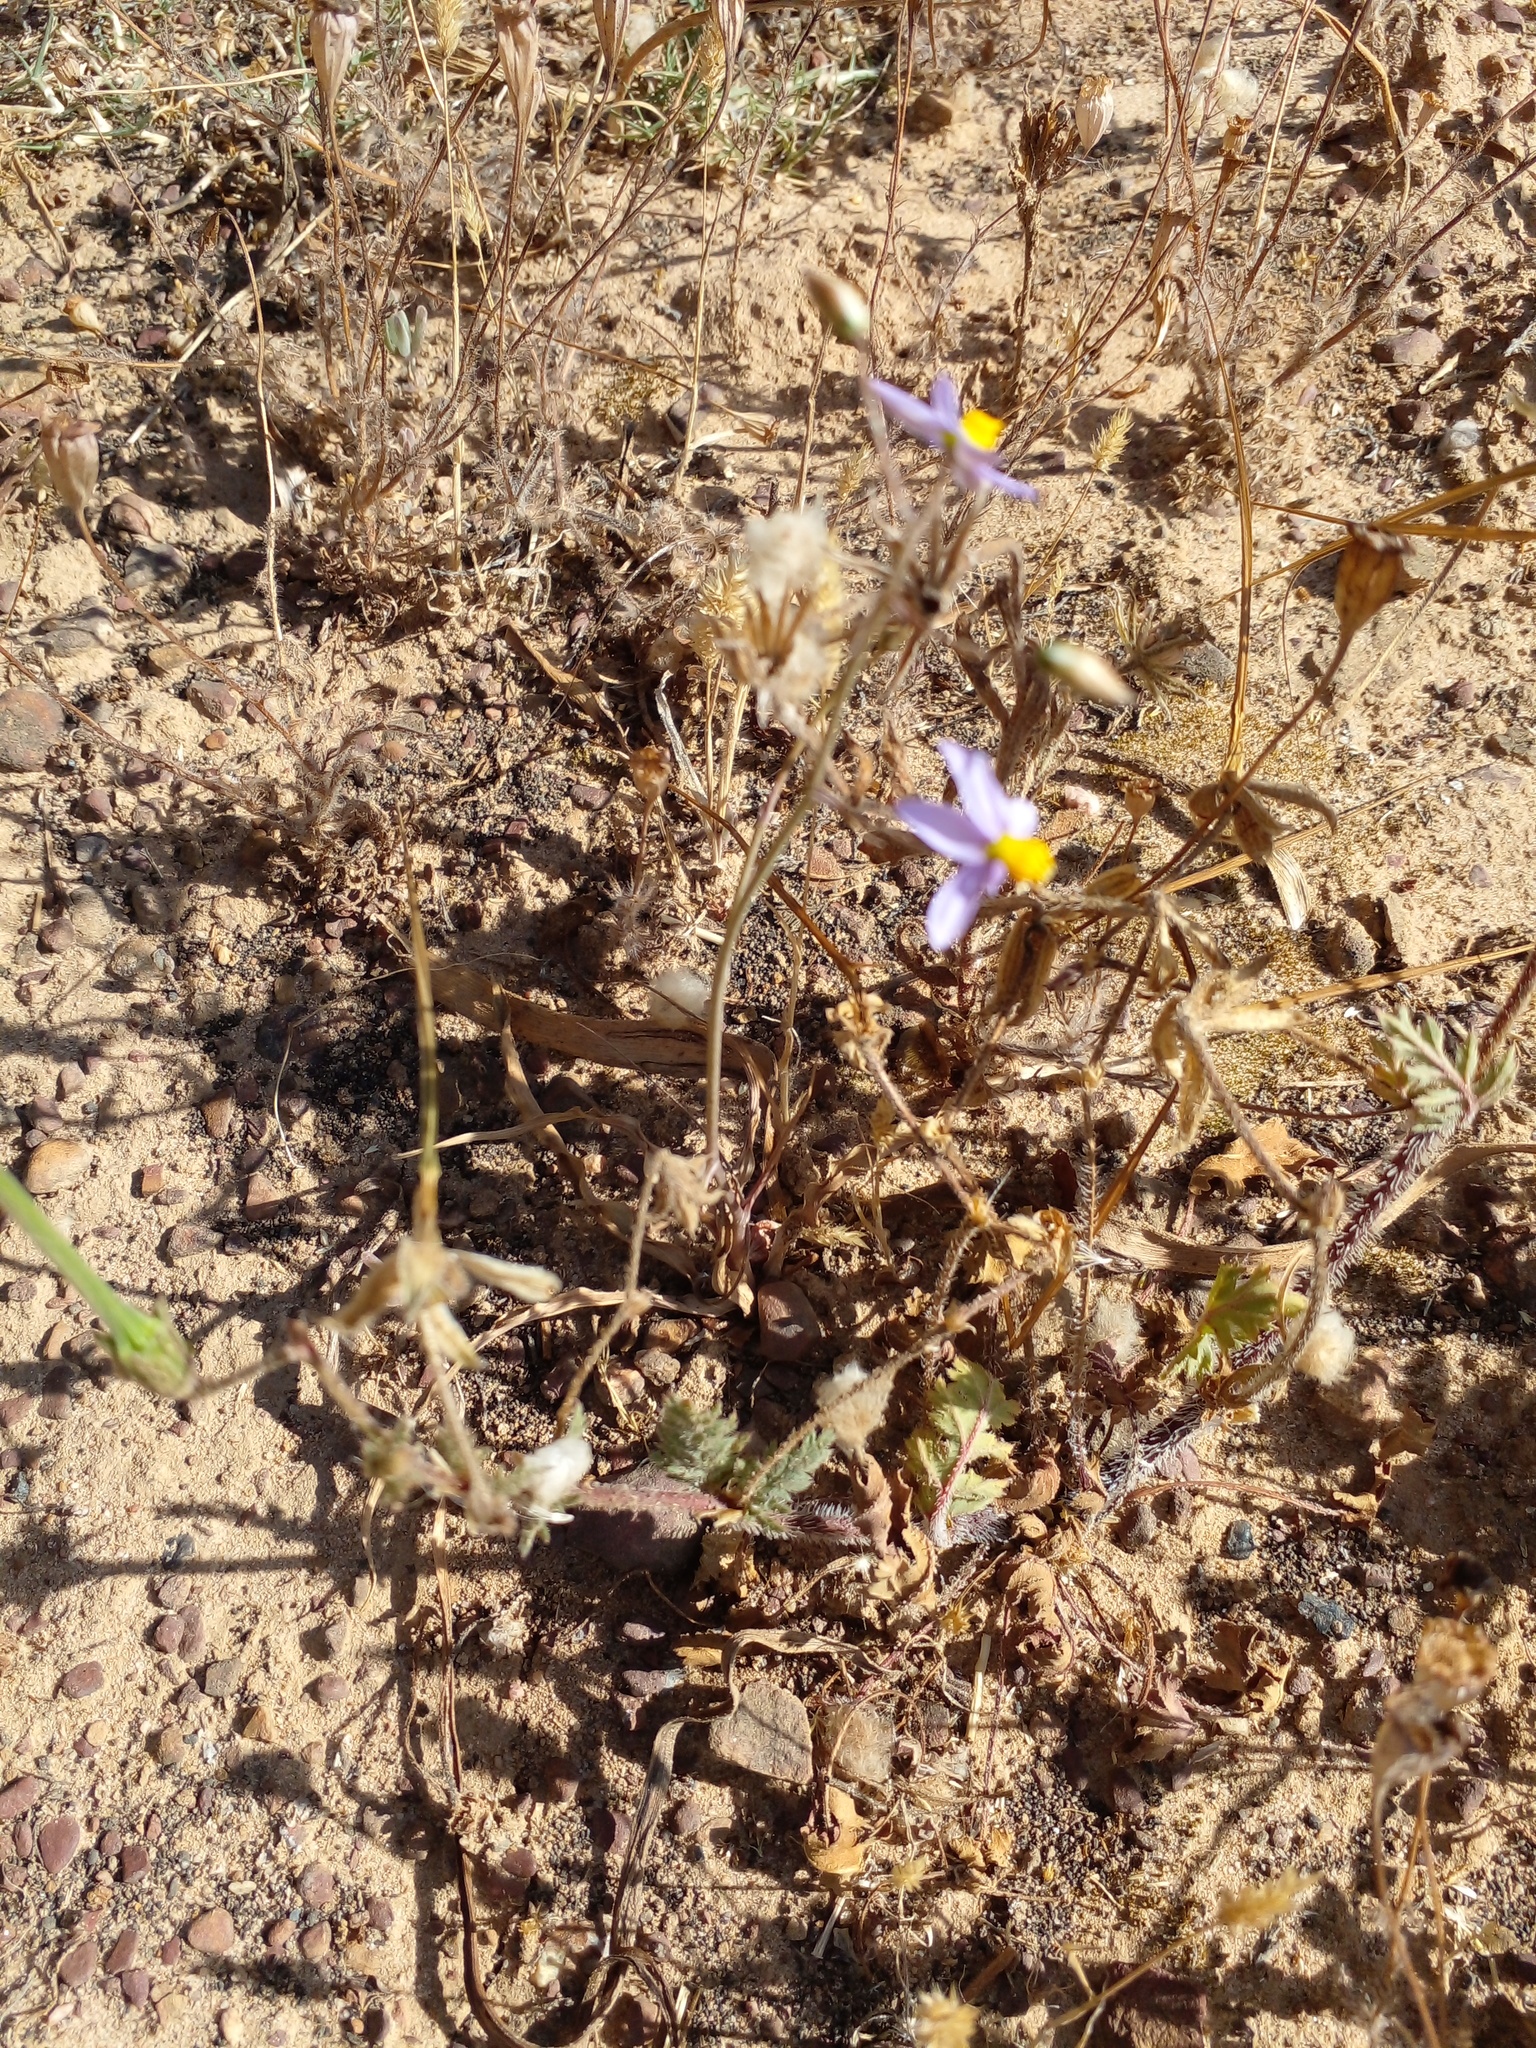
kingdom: Plantae
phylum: Tracheophyta
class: Liliopsida
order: Asparagales
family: Tecophilaeaceae
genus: Cyanella
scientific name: Cyanella hyacinthoides
